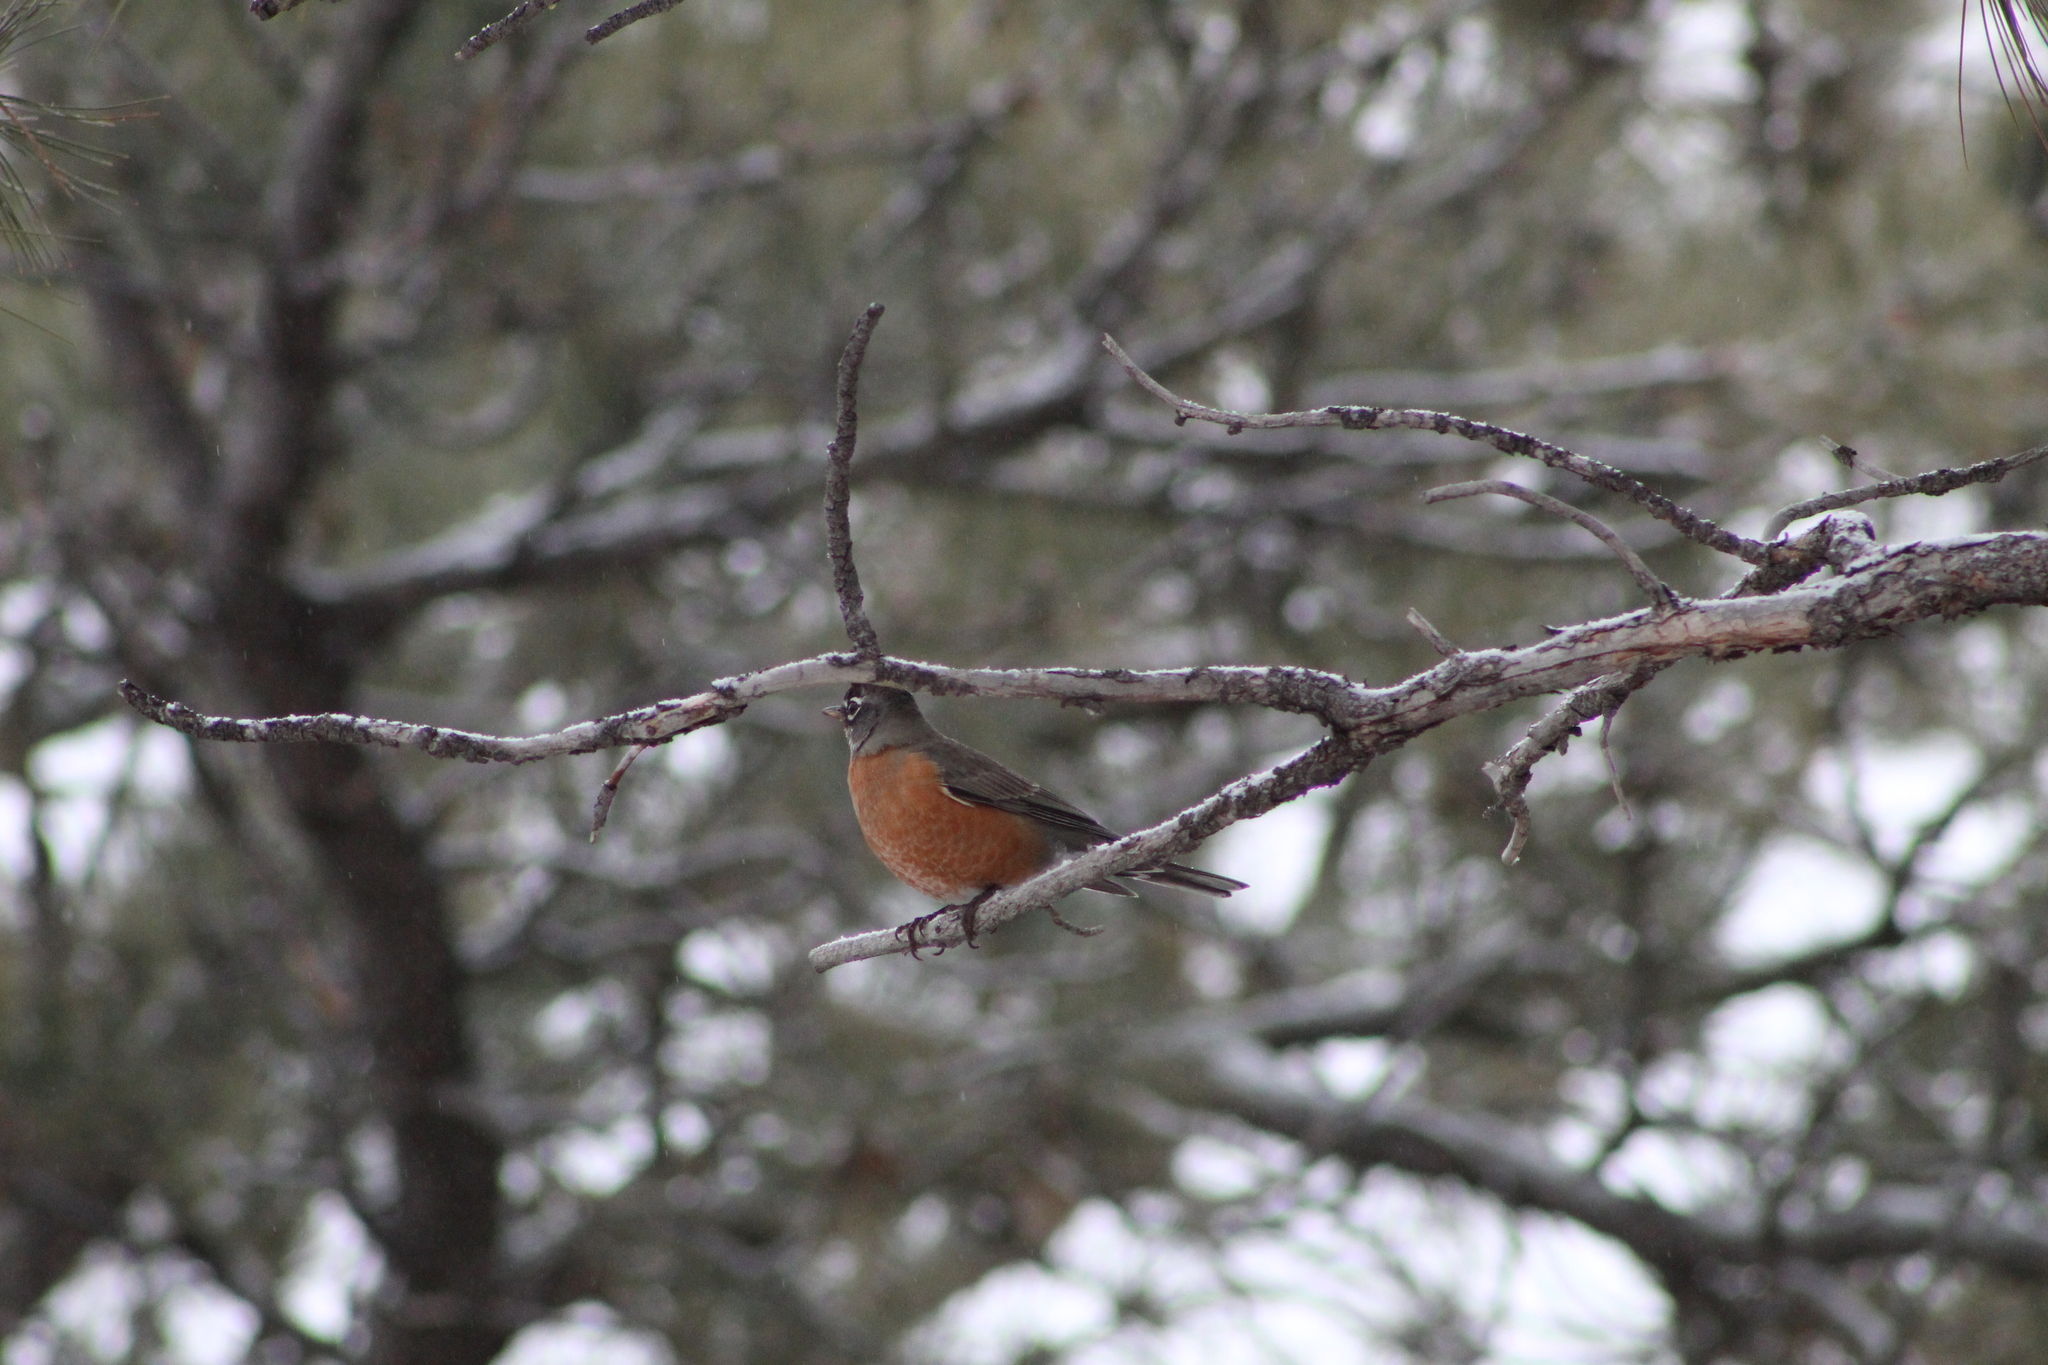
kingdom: Animalia
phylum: Chordata
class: Aves
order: Passeriformes
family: Turdidae
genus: Turdus
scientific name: Turdus migratorius
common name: American robin
